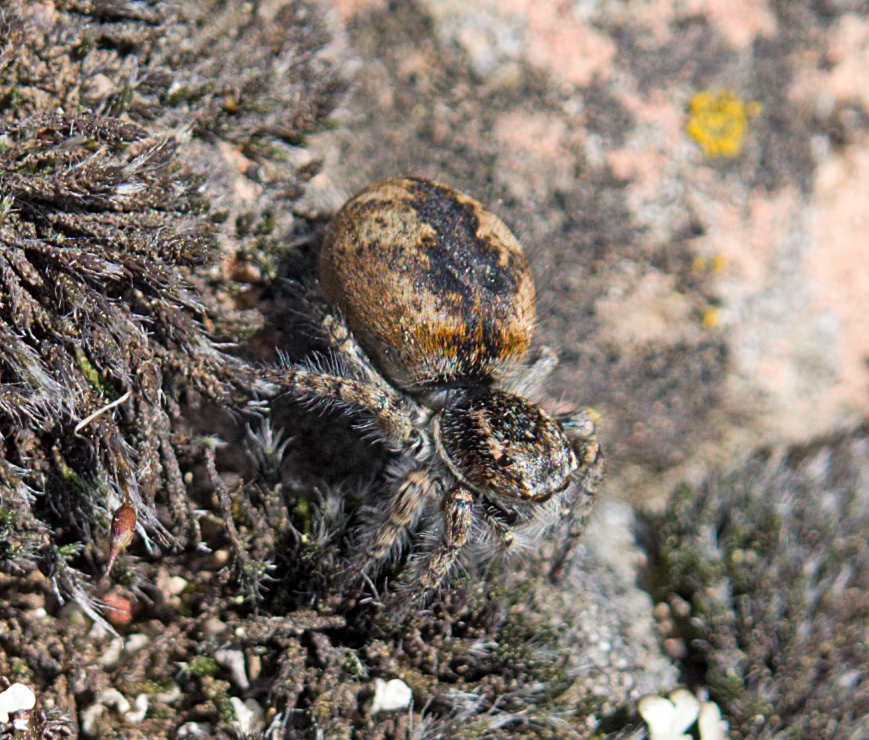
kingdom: Animalia
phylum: Arthropoda
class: Arachnida
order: Araneae
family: Salticidae
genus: Philaeus
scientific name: Philaeus chrysops
